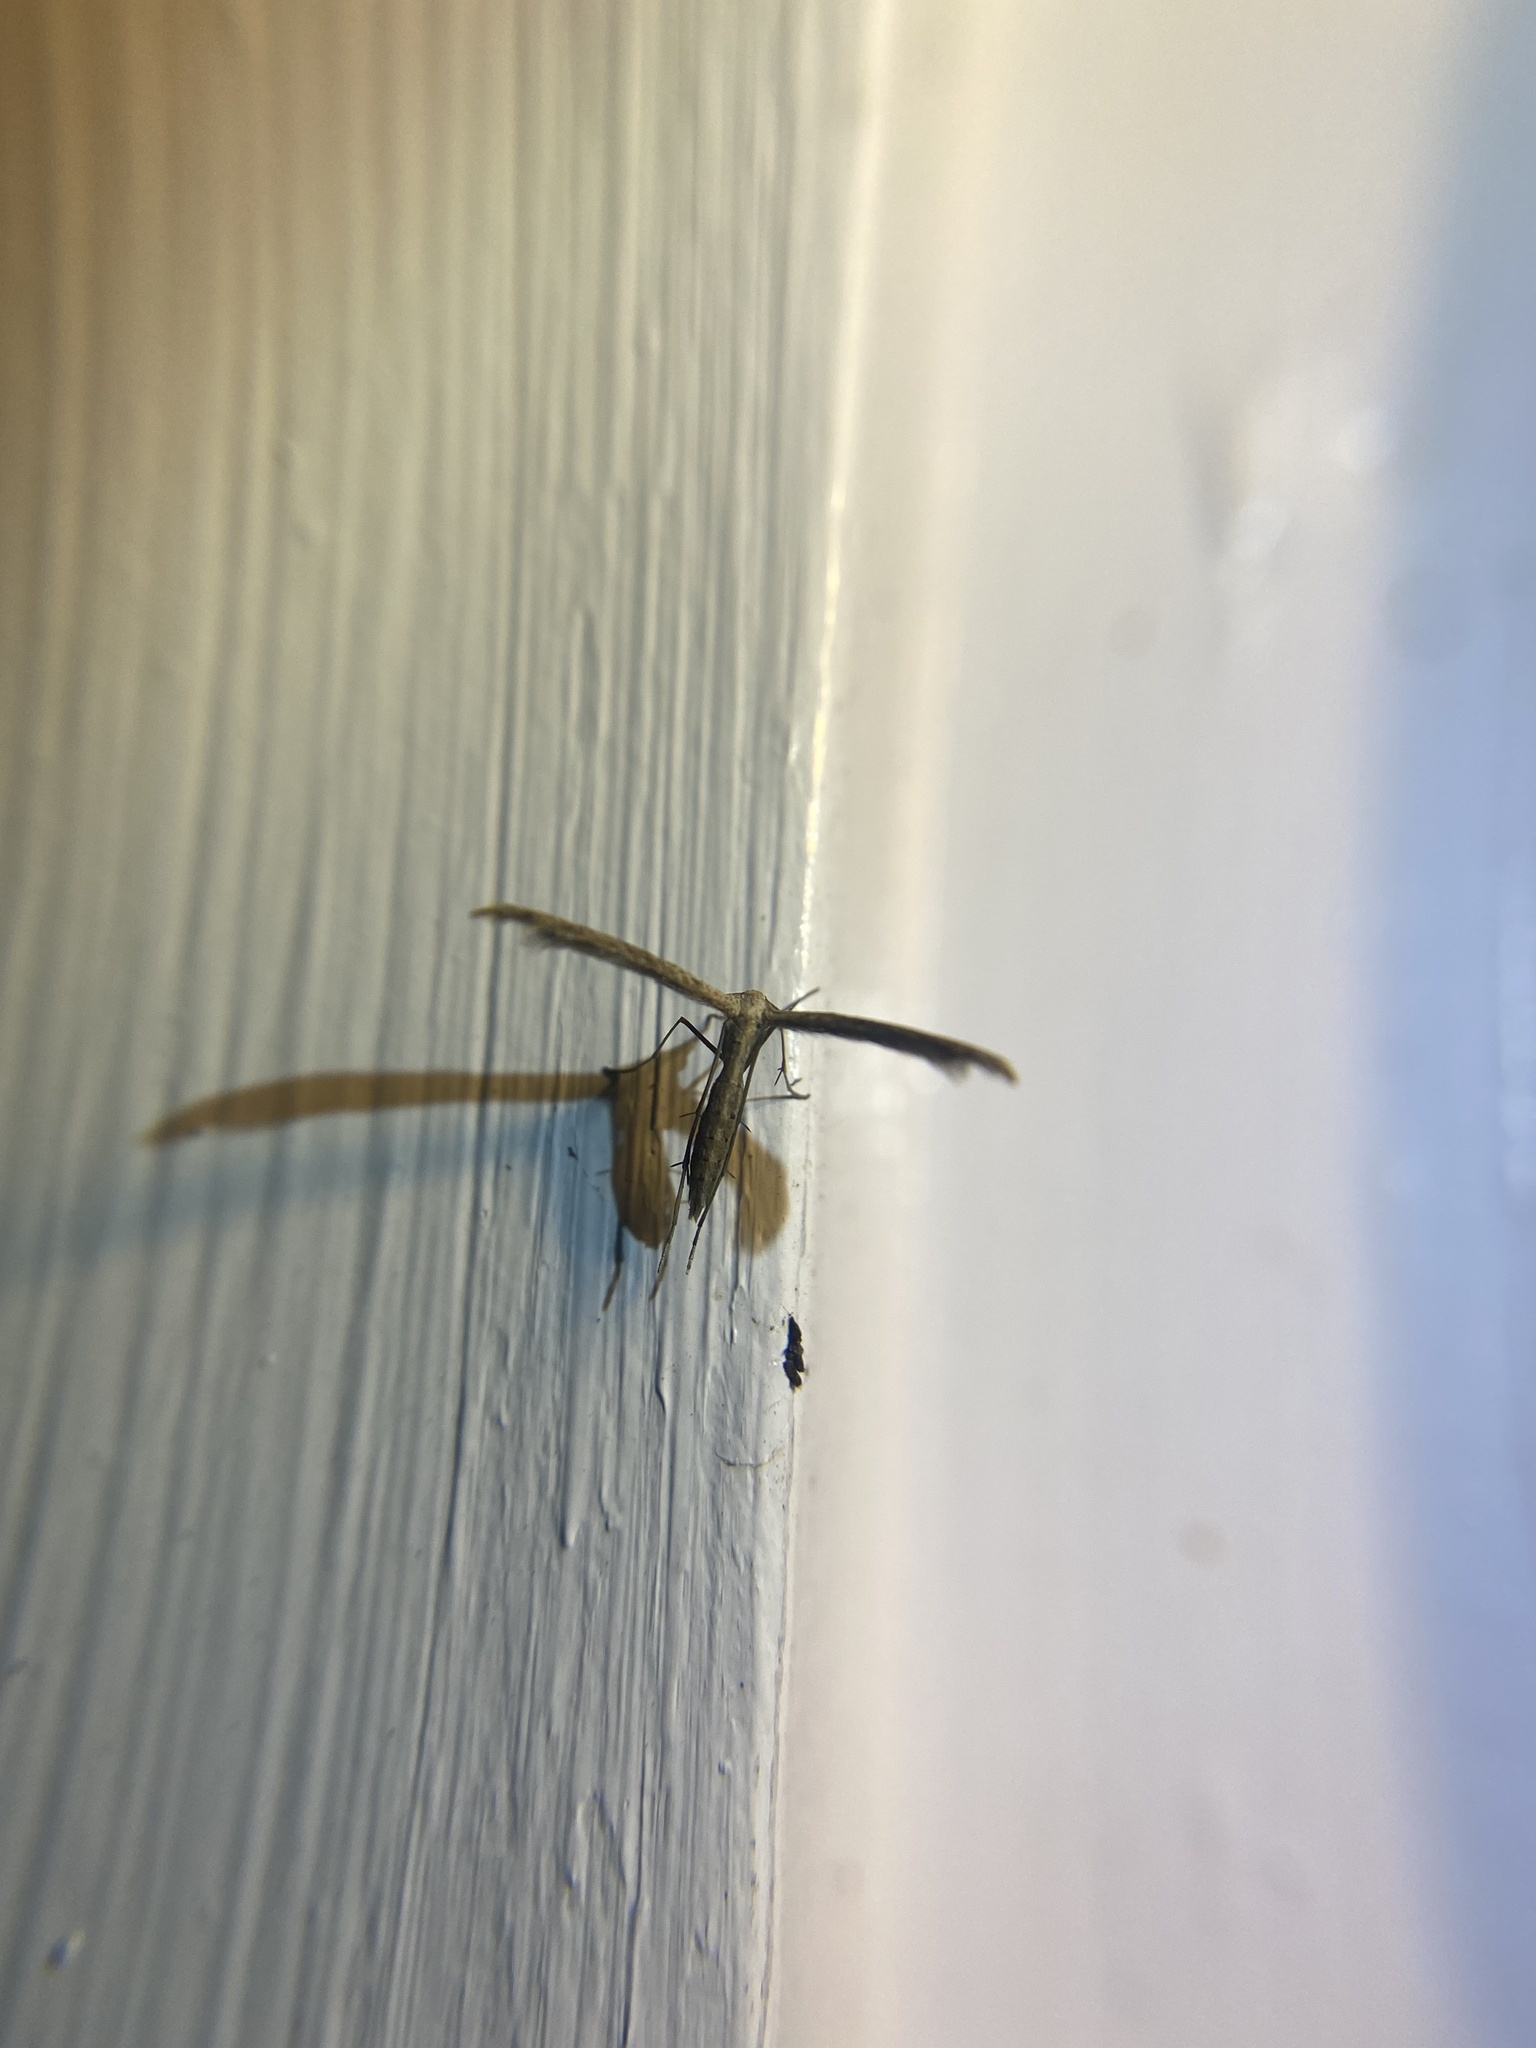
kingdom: Animalia
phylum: Arthropoda
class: Insecta
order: Lepidoptera
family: Pterophoridae
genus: Lioptilodes
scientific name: Lioptilodes albistriolatus
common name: Moth
